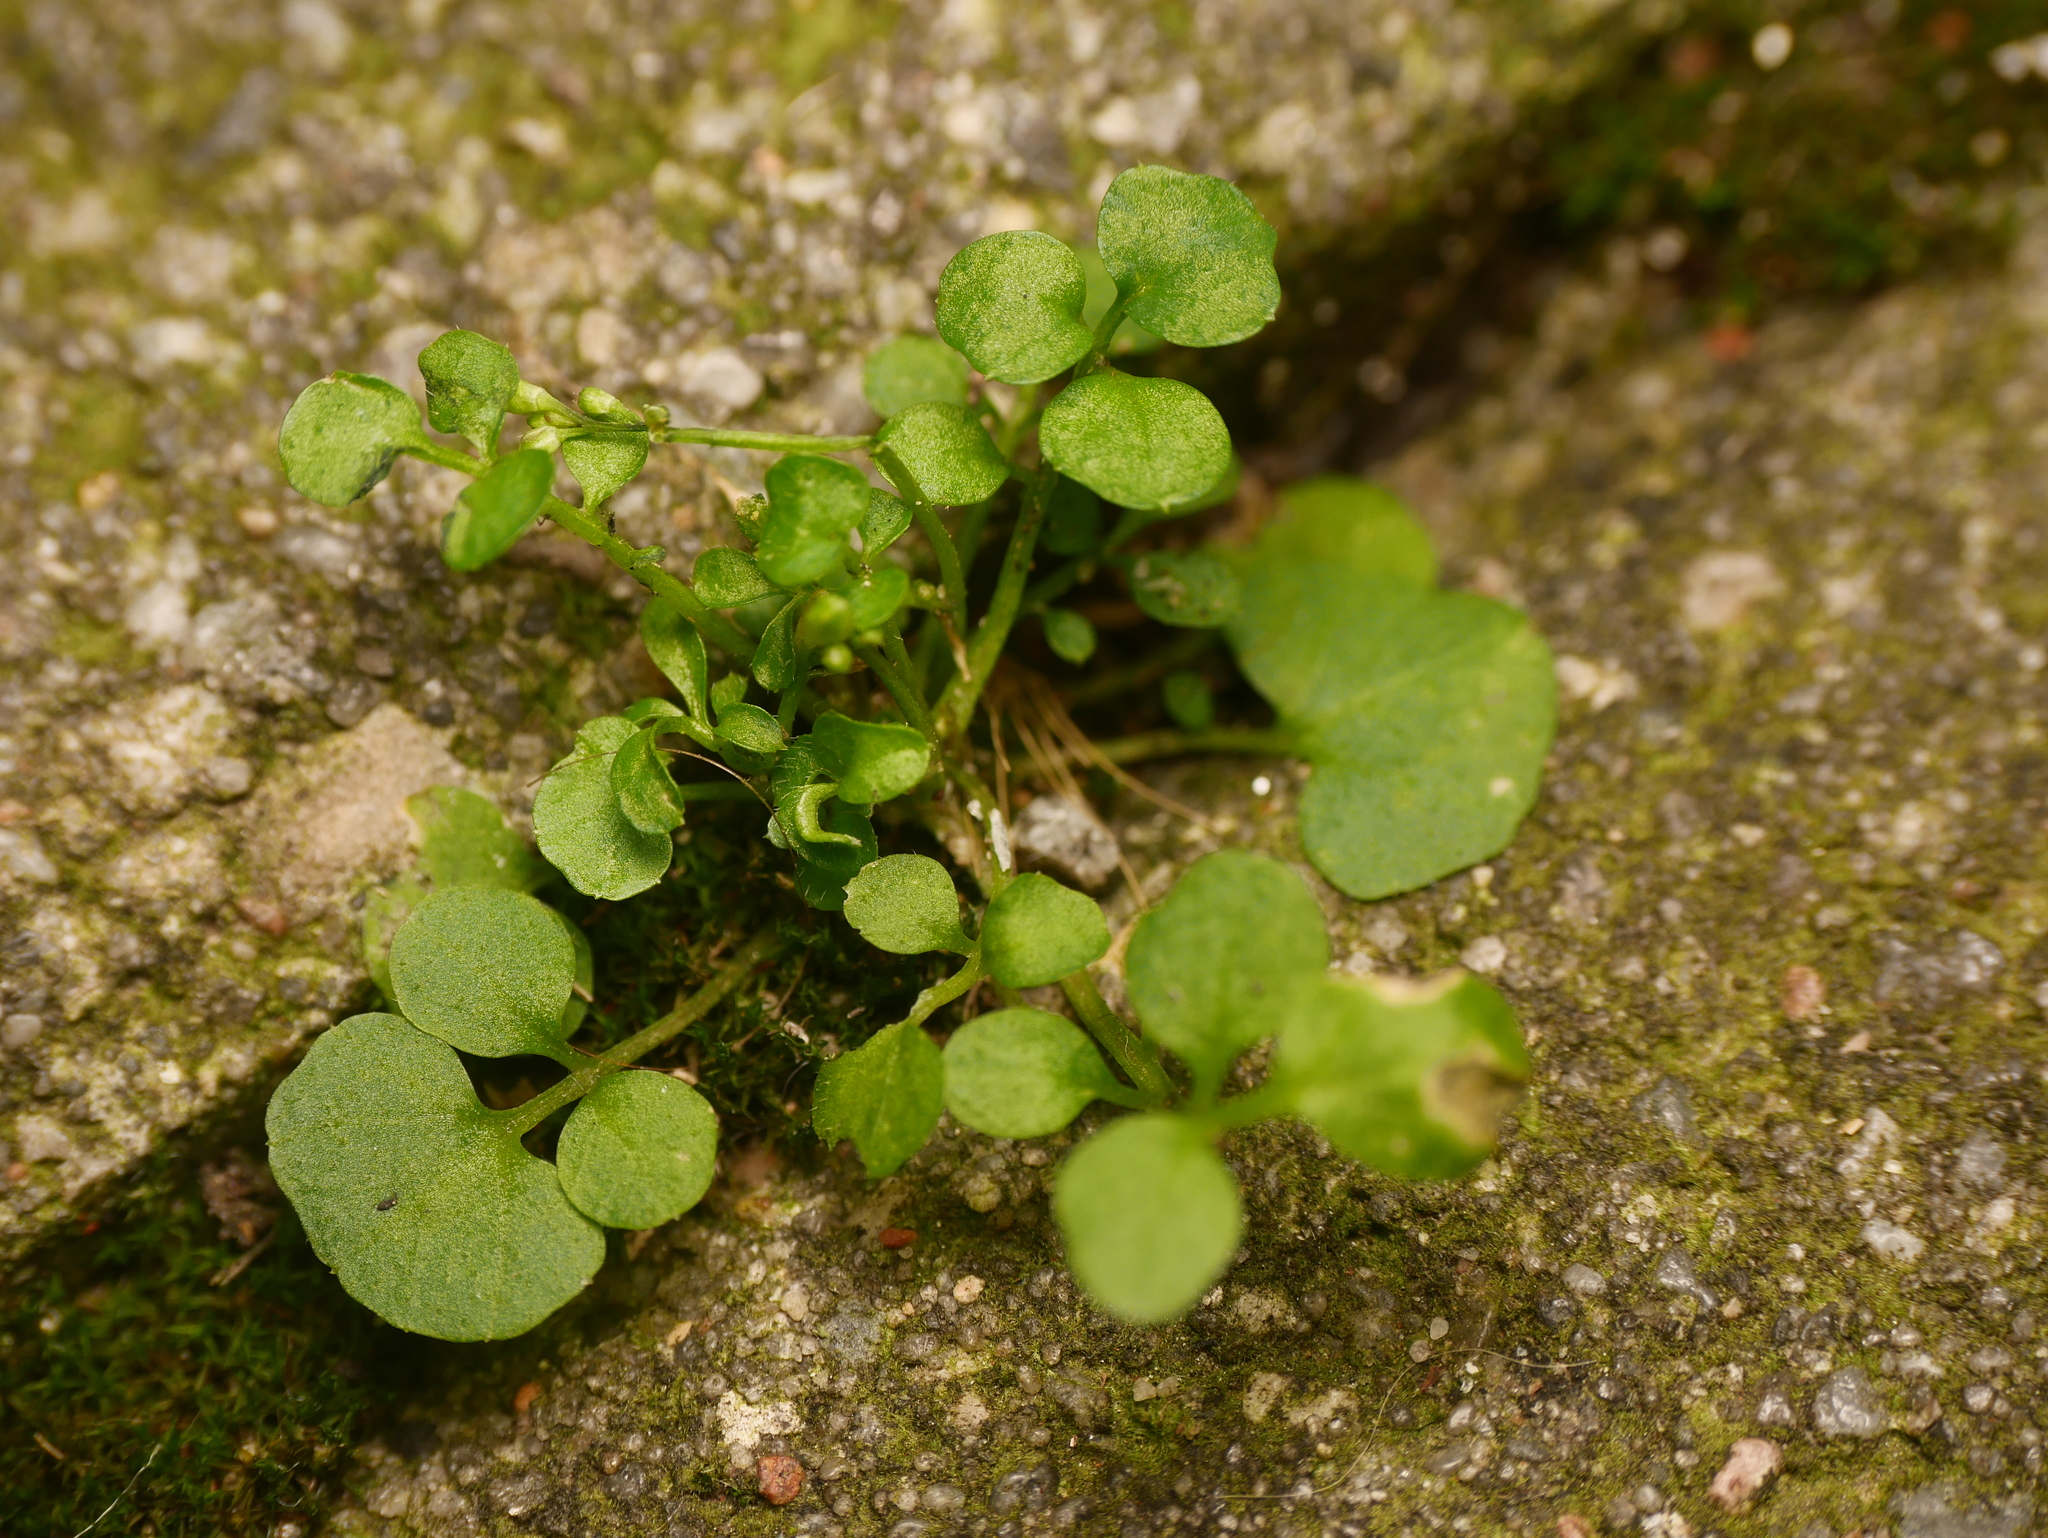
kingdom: Plantae
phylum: Tracheophyta
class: Magnoliopsida
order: Brassicales
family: Brassicaceae
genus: Cardamine
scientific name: Cardamine hirsuta
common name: Hairy bittercress
